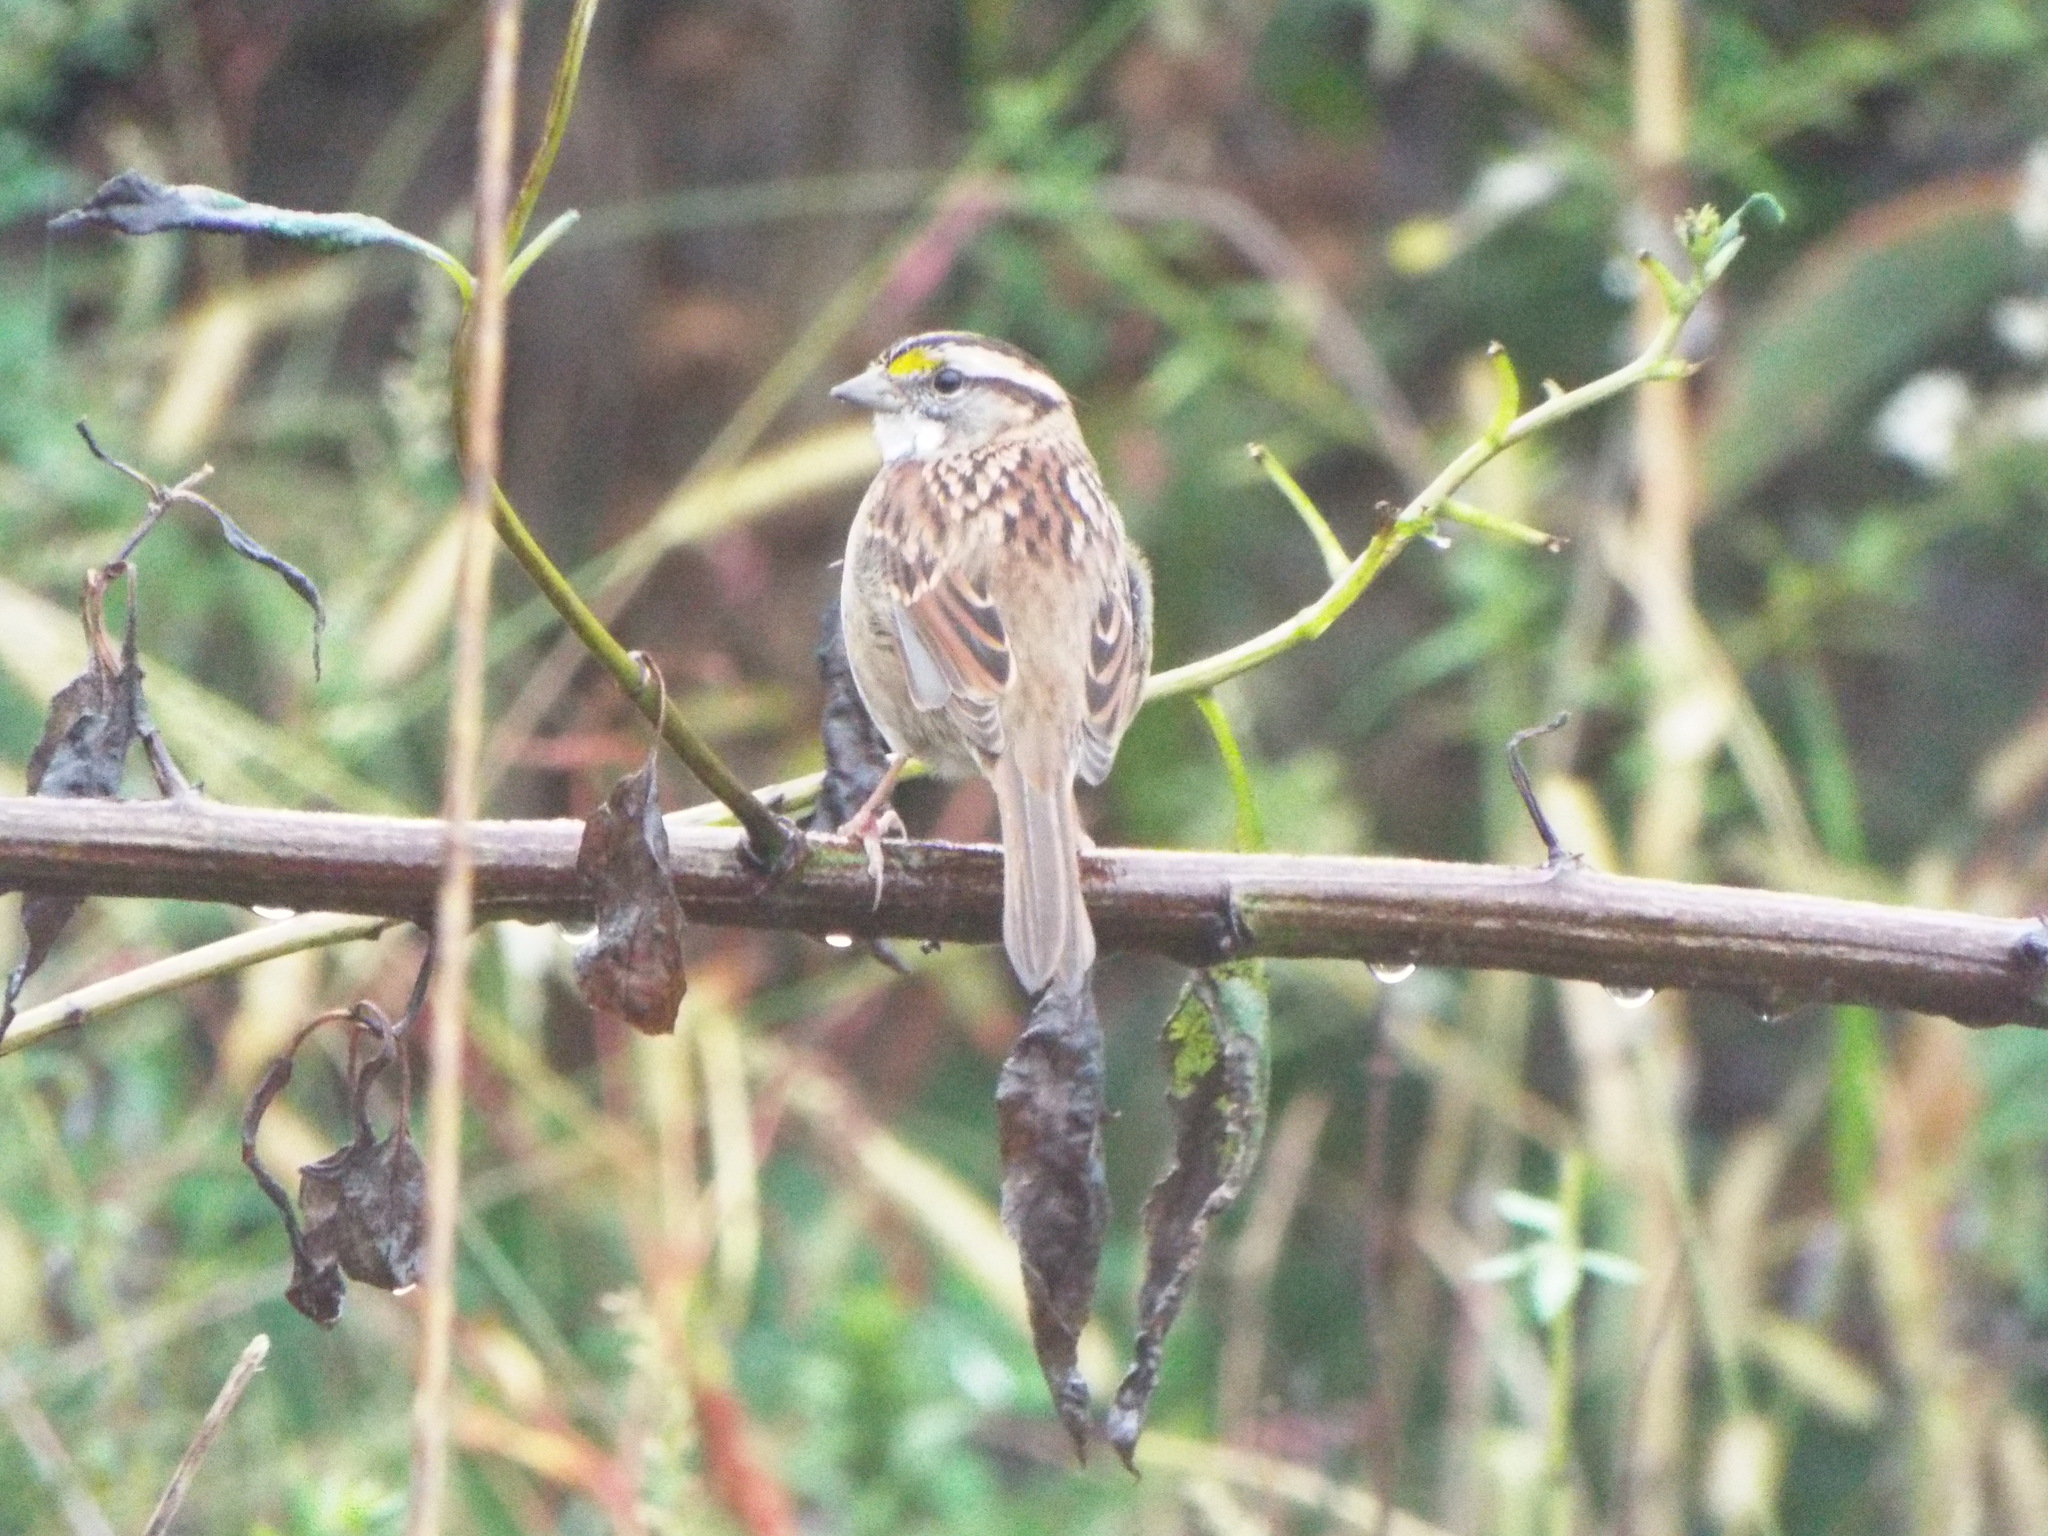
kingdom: Animalia
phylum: Chordata
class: Aves
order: Passeriformes
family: Passerellidae
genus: Zonotrichia
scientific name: Zonotrichia albicollis
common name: White-throated sparrow
